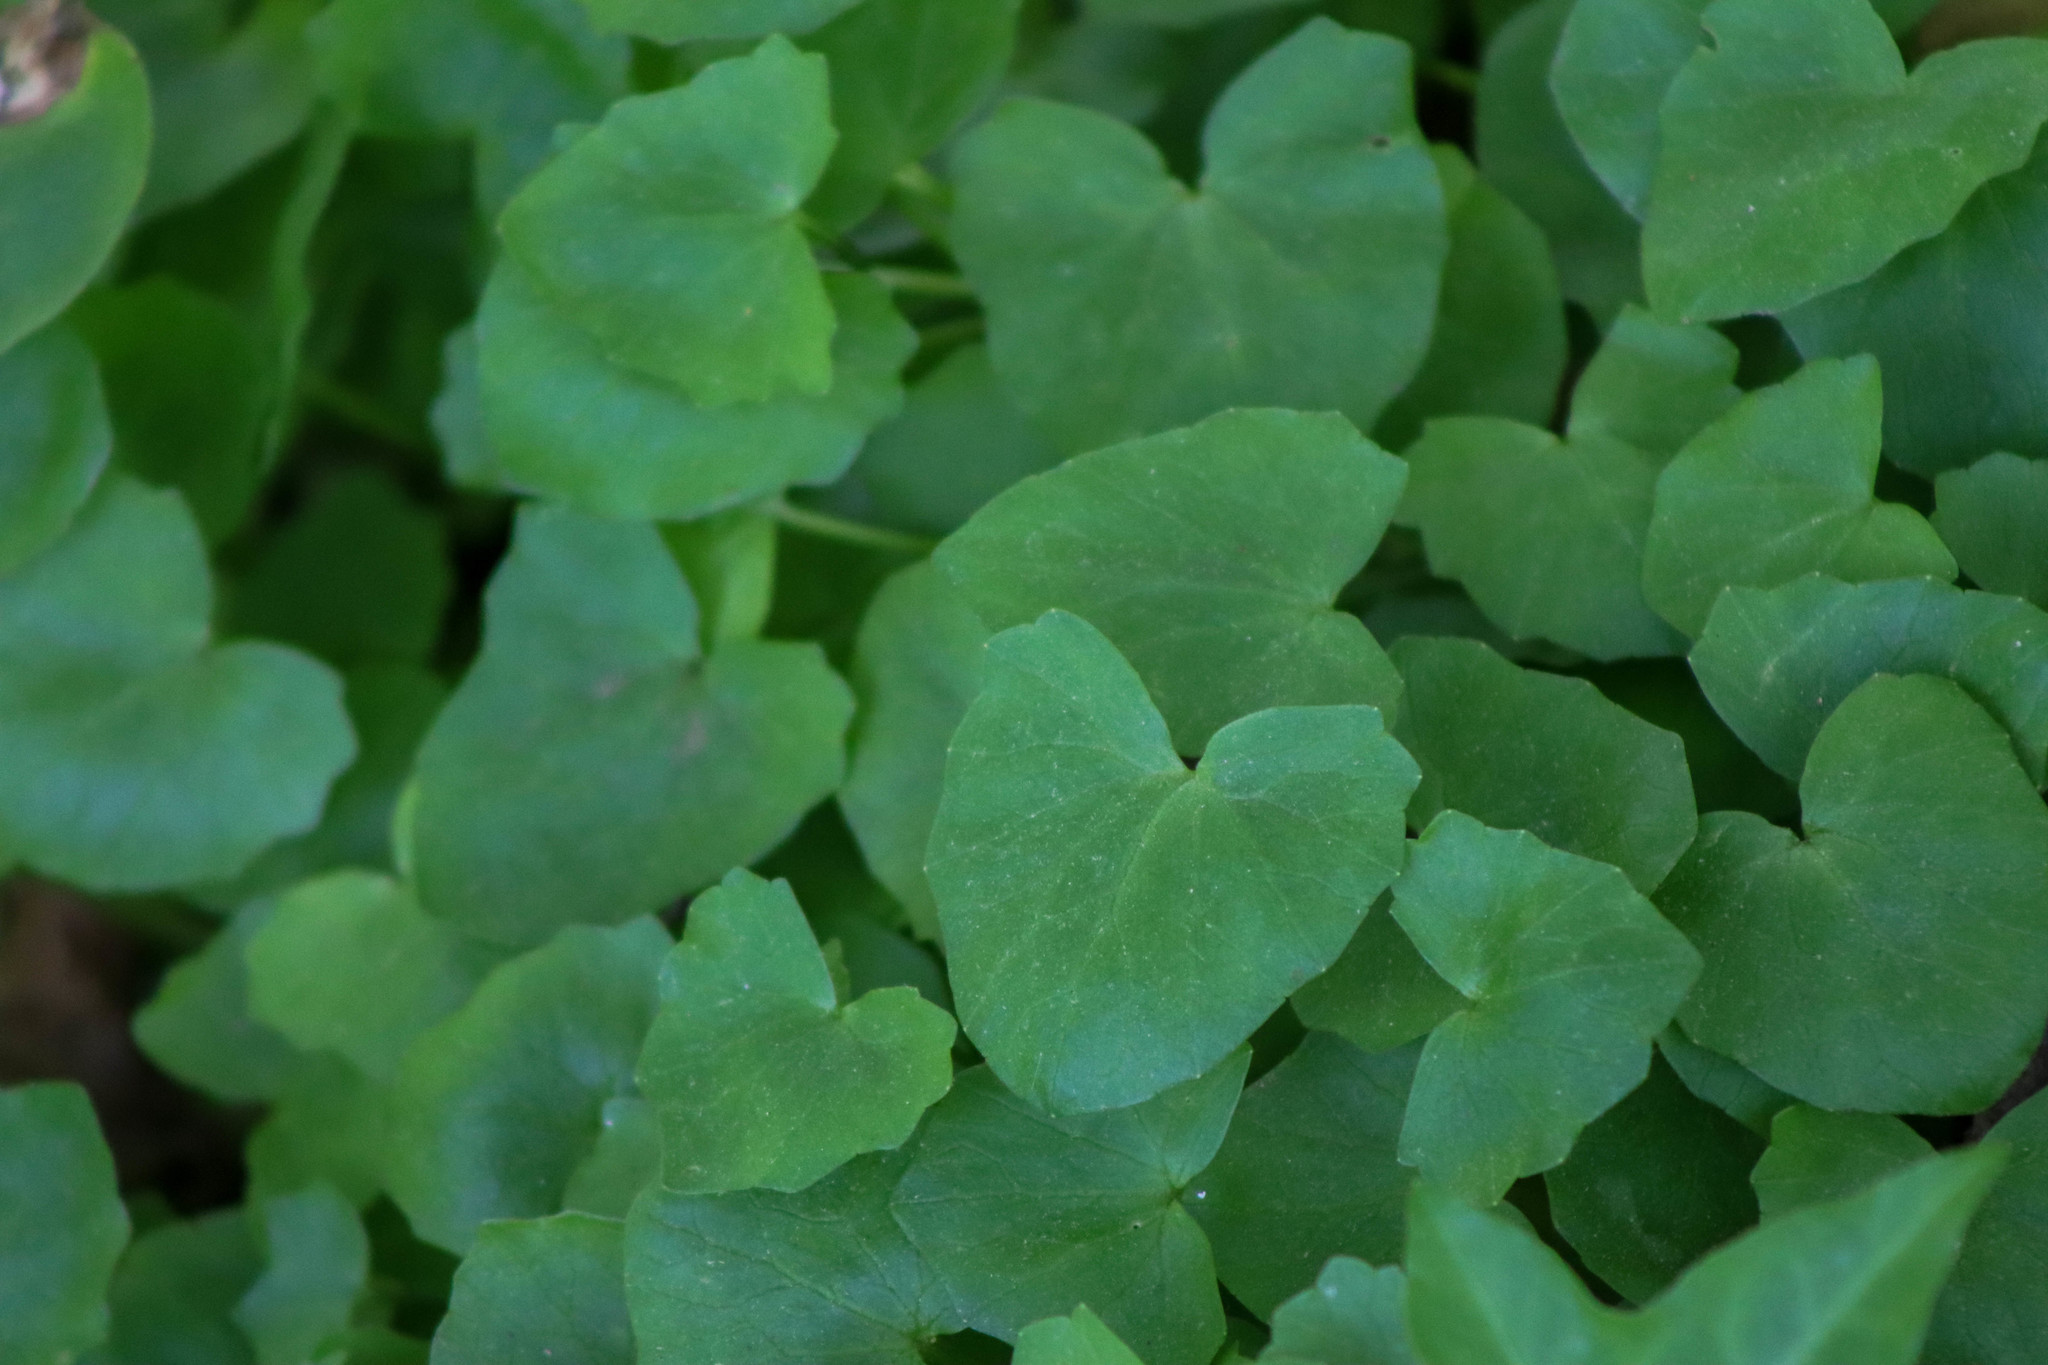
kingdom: Plantae
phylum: Tracheophyta
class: Magnoliopsida
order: Ranunculales
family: Ranunculaceae
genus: Ficaria
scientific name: Ficaria verna
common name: Lesser celandine
